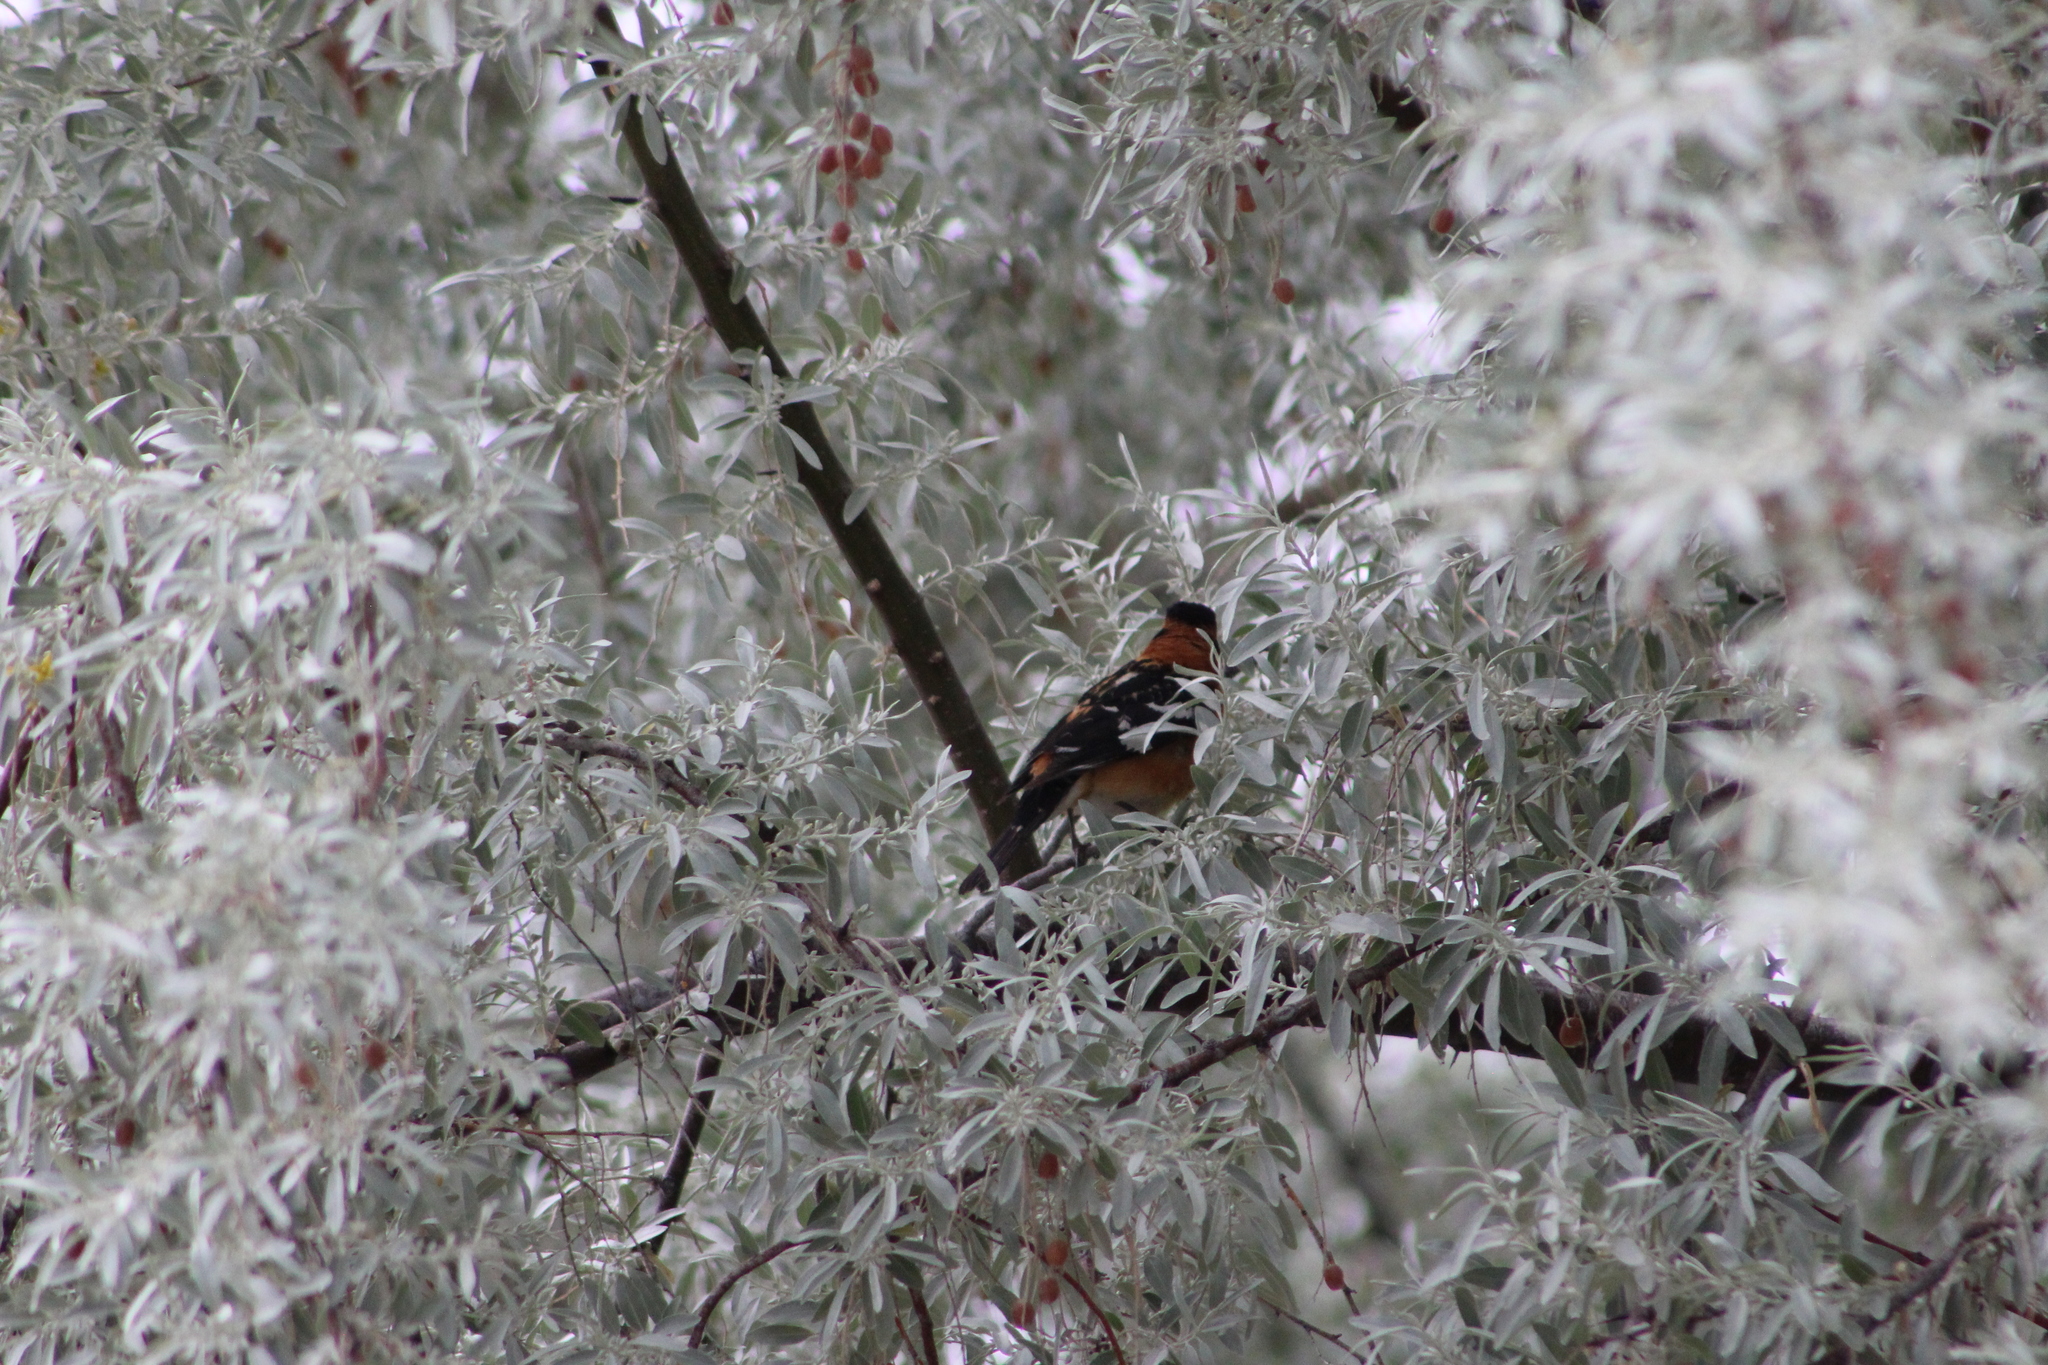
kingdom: Animalia
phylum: Chordata
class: Aves
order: Passeriformes
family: Cardinalidae
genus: Pheucticus
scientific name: Pheucticus melanocephalus
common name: Black-headed grosbeak
